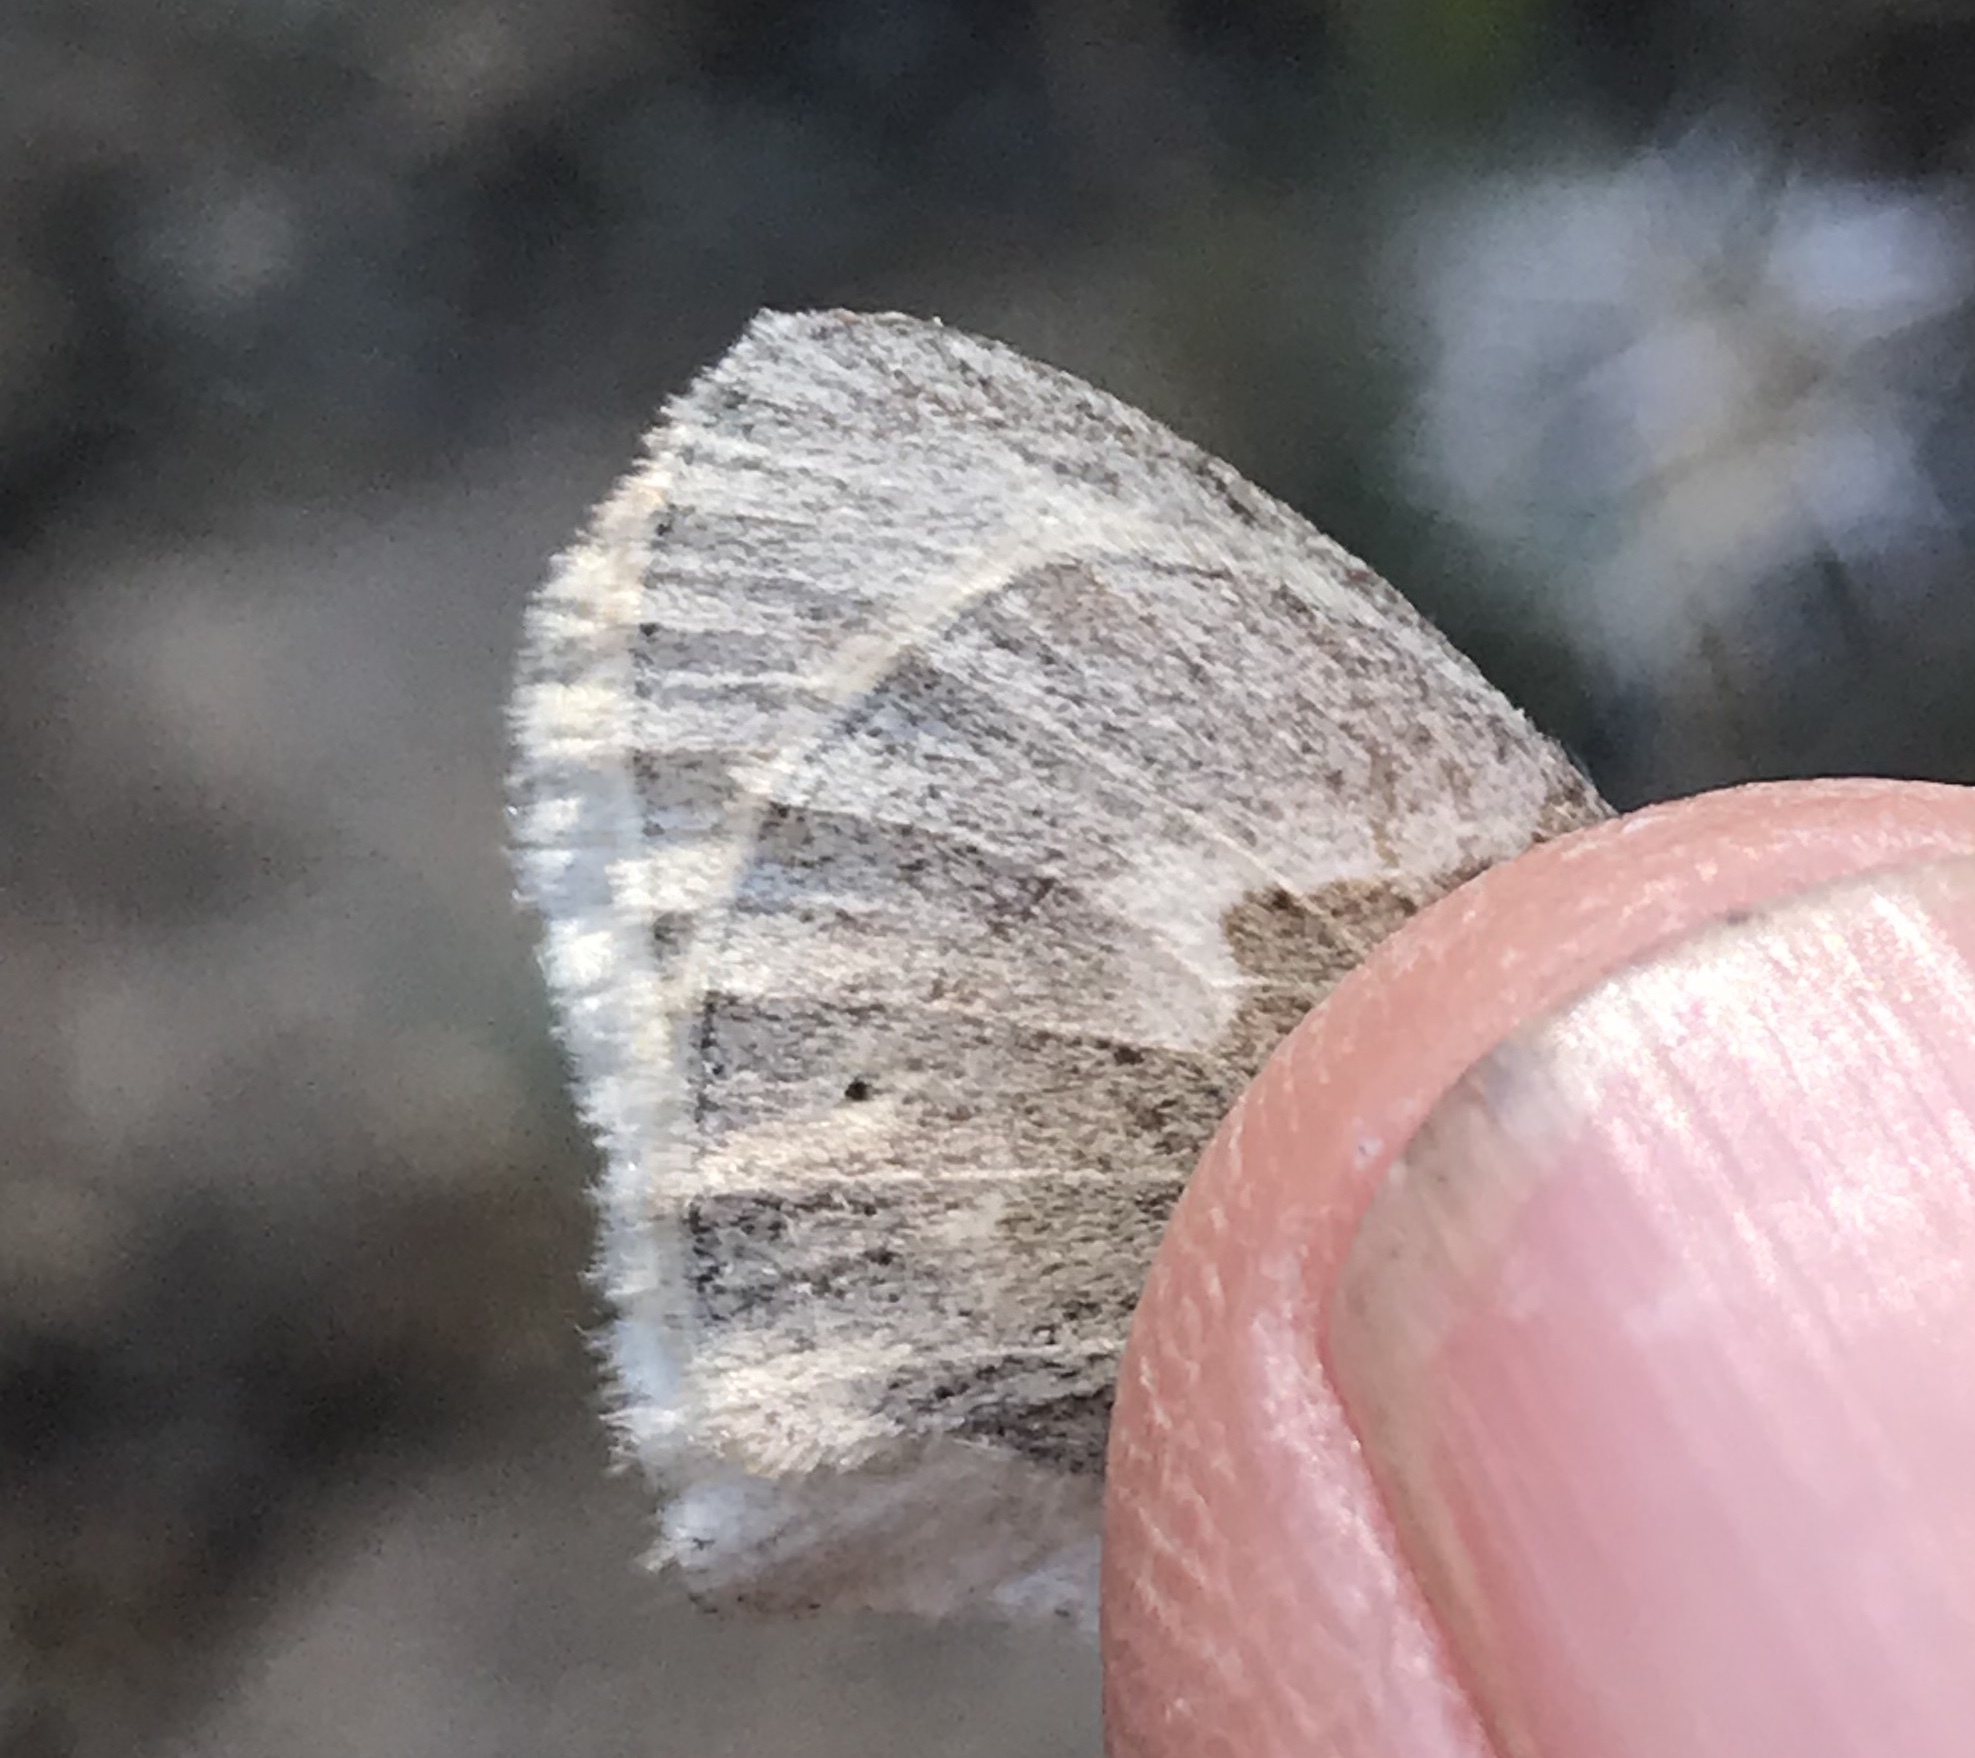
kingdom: Animalia
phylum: Arthropoda
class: Insecta
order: Lepidoptera
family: Nymphalidae
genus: Coenonympha
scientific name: Coenonympha california
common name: Common ringlet
